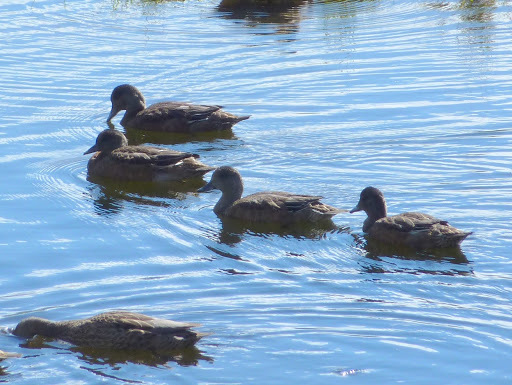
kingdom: Animalia
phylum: Chordata
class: Aves
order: Anseriformes
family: Anatidae
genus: Mareca
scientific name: Mareca americana
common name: American wigeon
